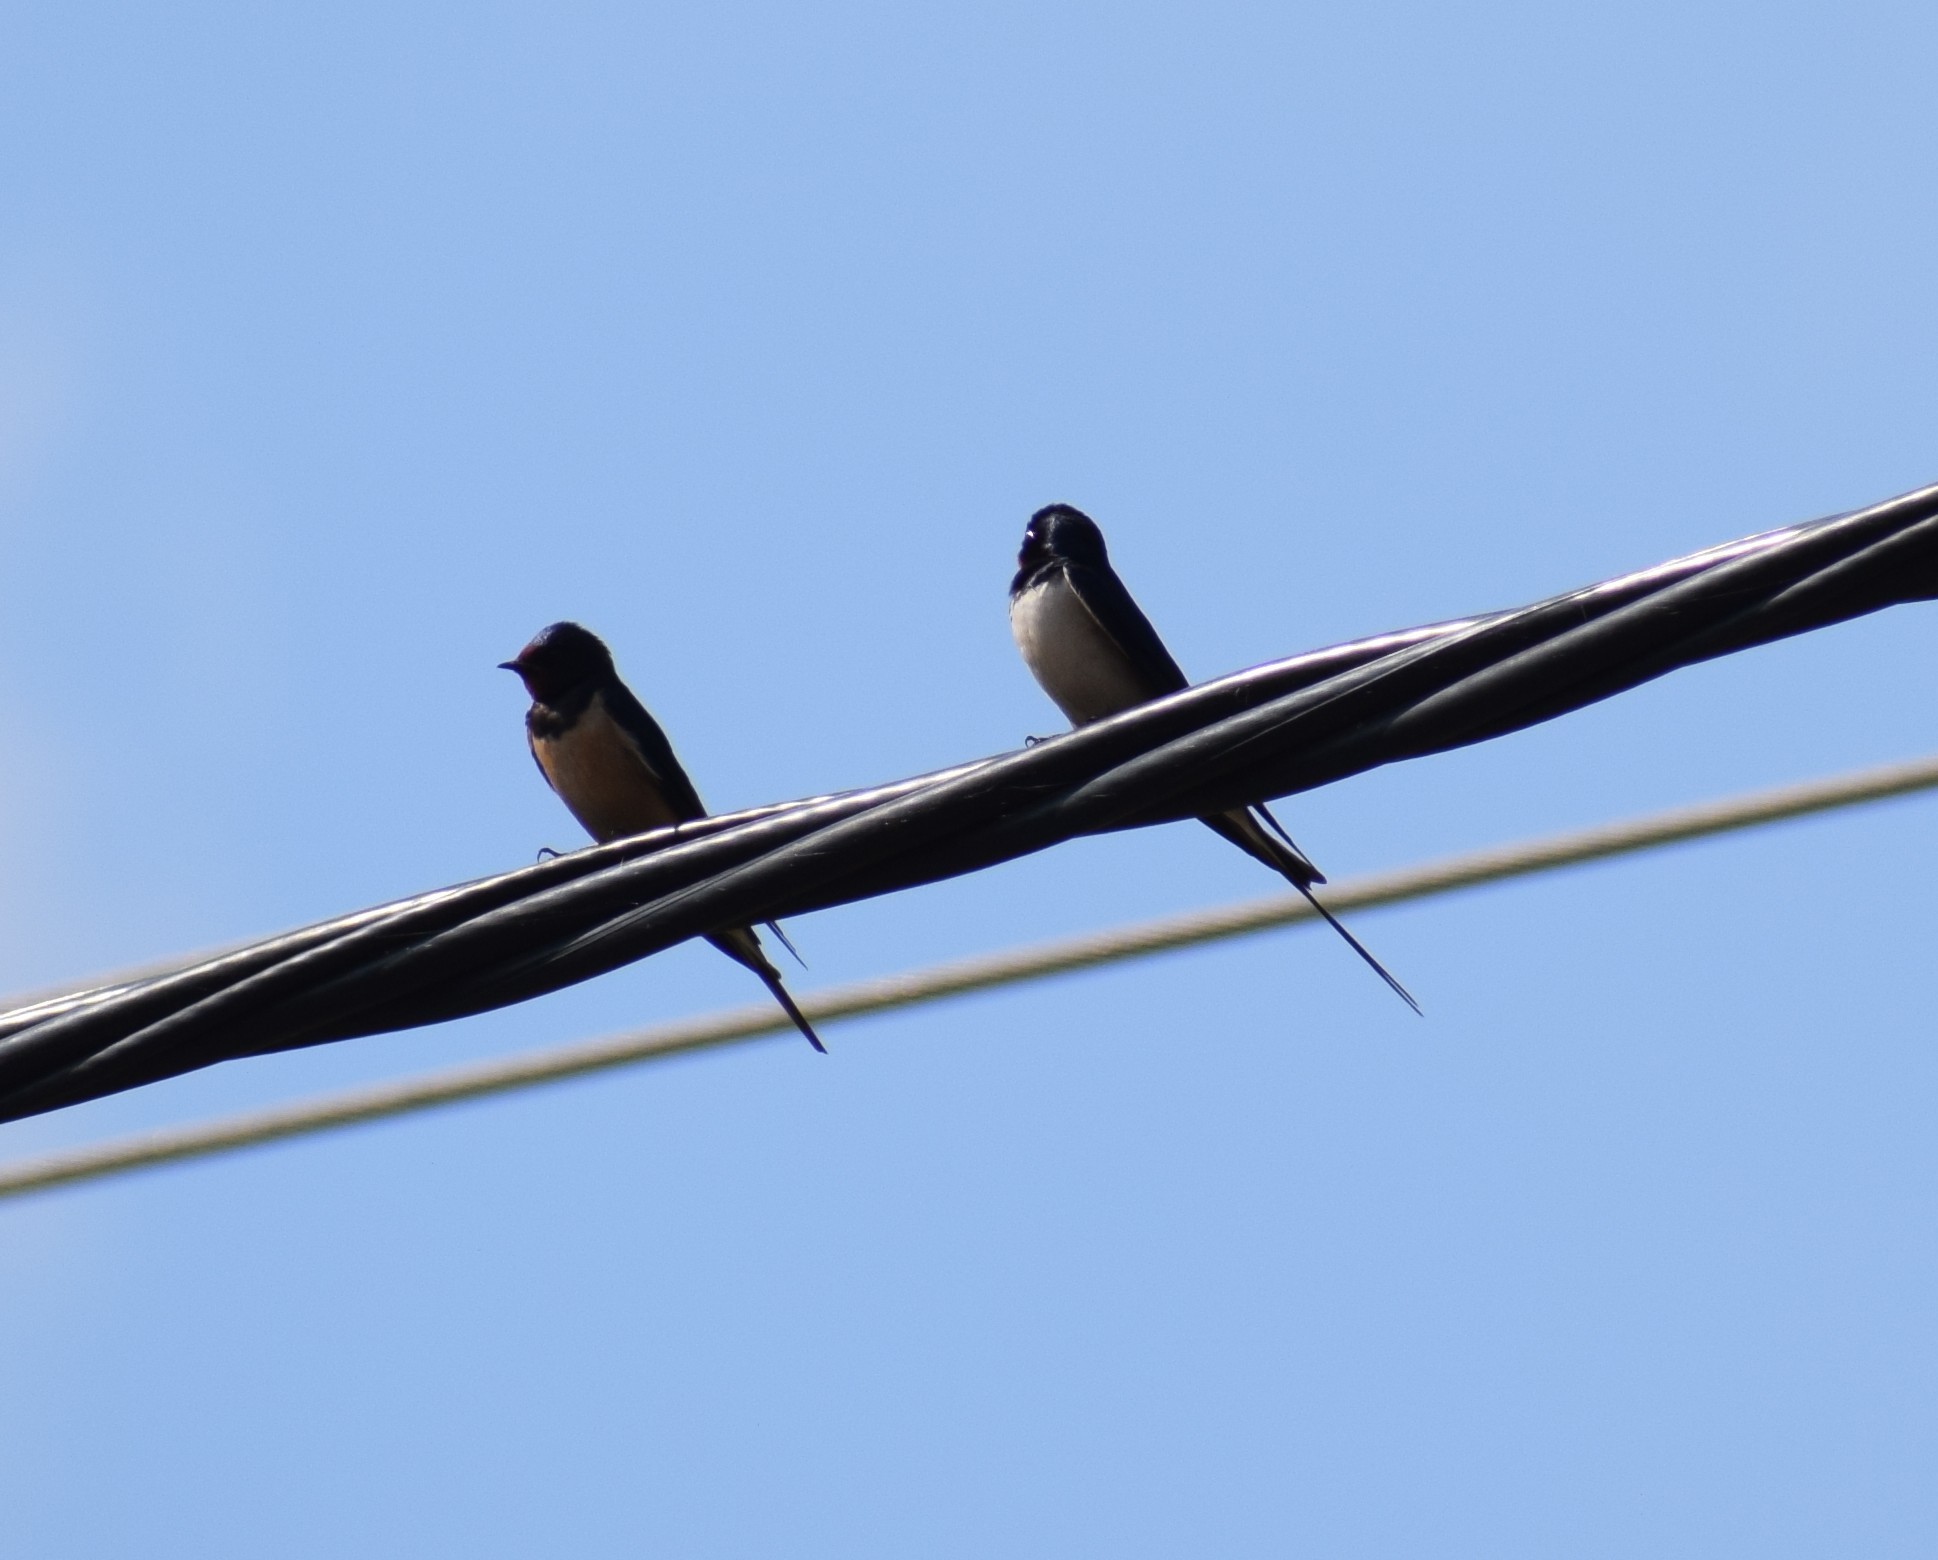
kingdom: Animalia
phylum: Chordata
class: Aves
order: Passeriformes
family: Hirundinidae
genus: Hirundo
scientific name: Hirundo rustica
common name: Barn swallow
